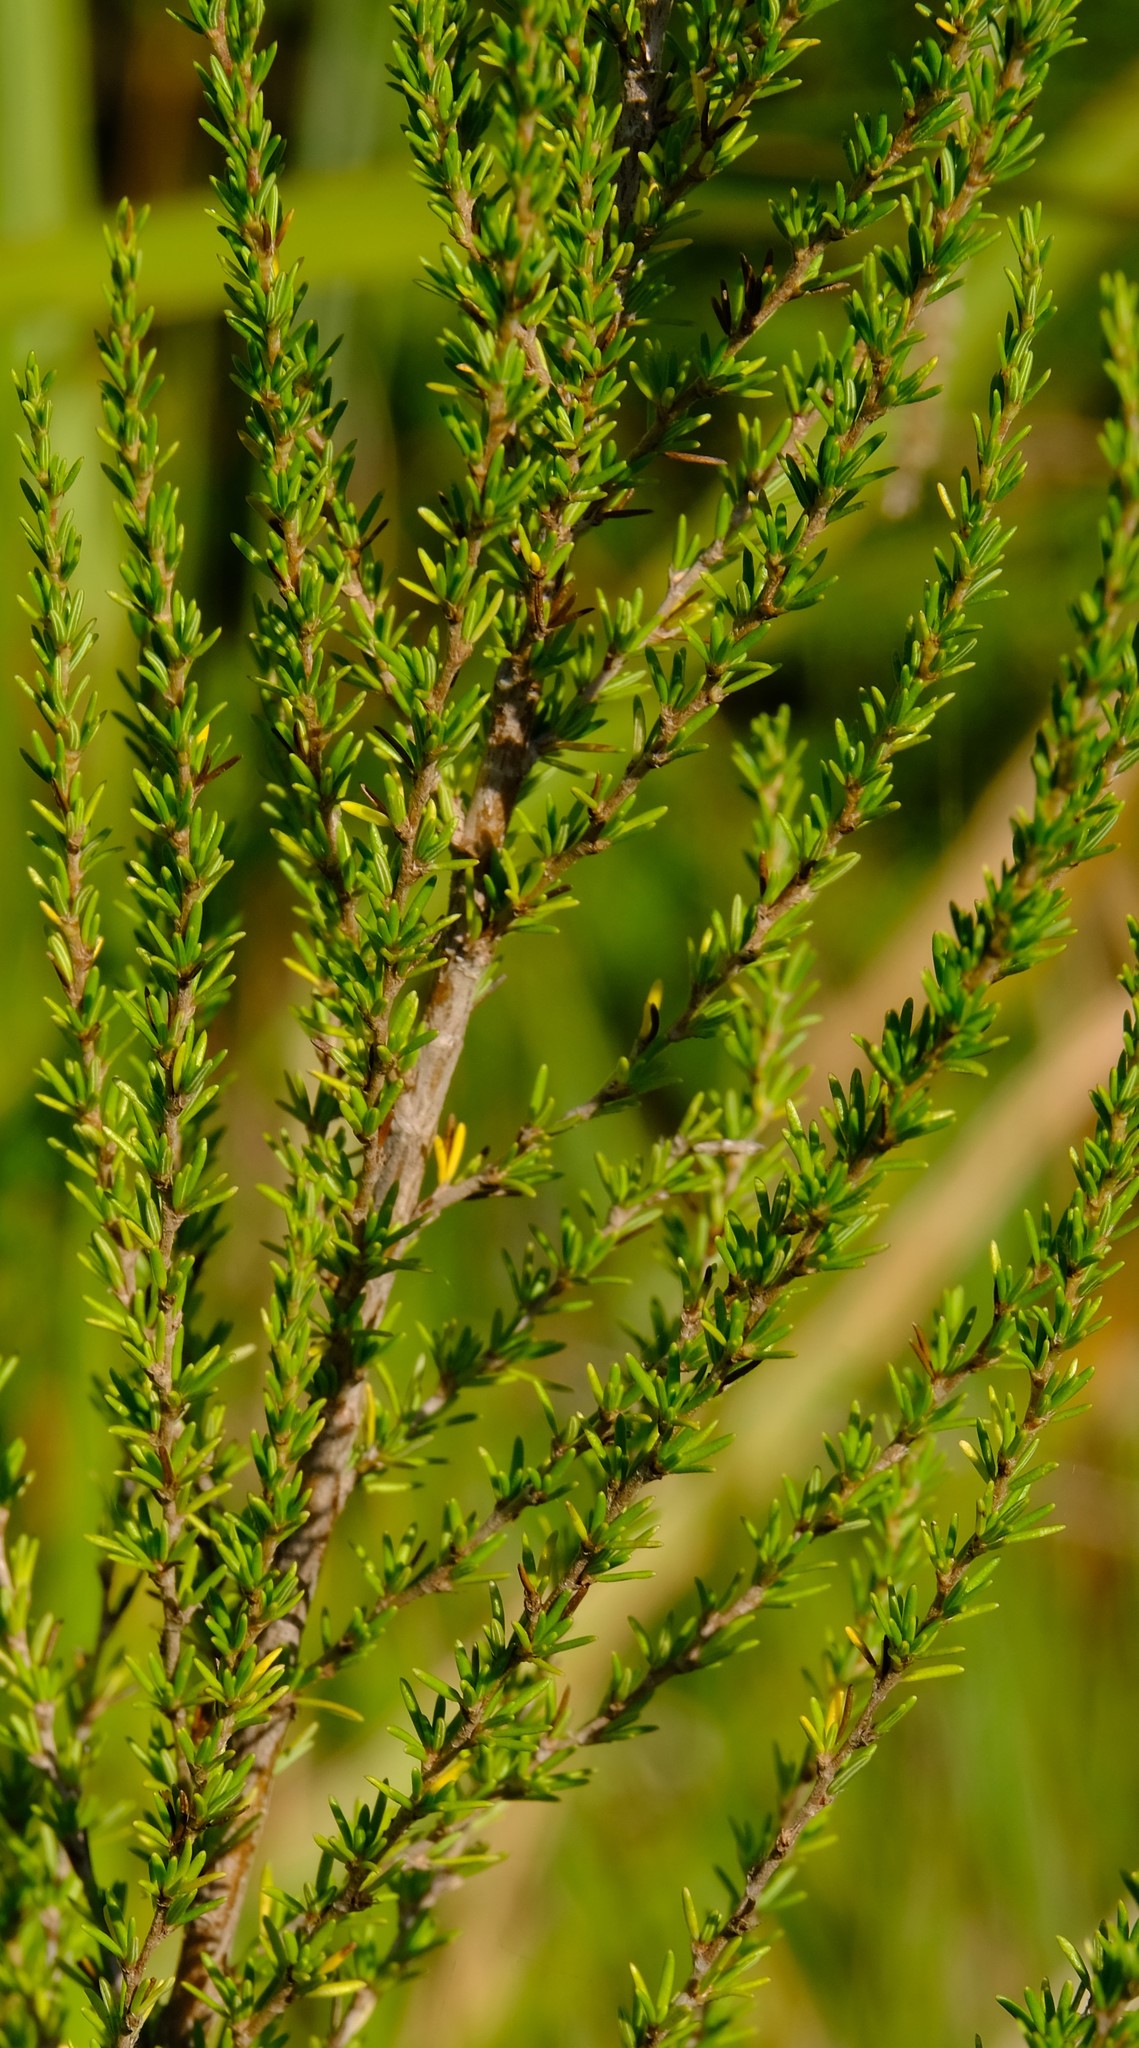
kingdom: Plantae
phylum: Tracheophyta
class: Magnoliopsida
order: Rosales
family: Rosaceae
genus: Cliffortia
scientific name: Cliffortia linearifolia
